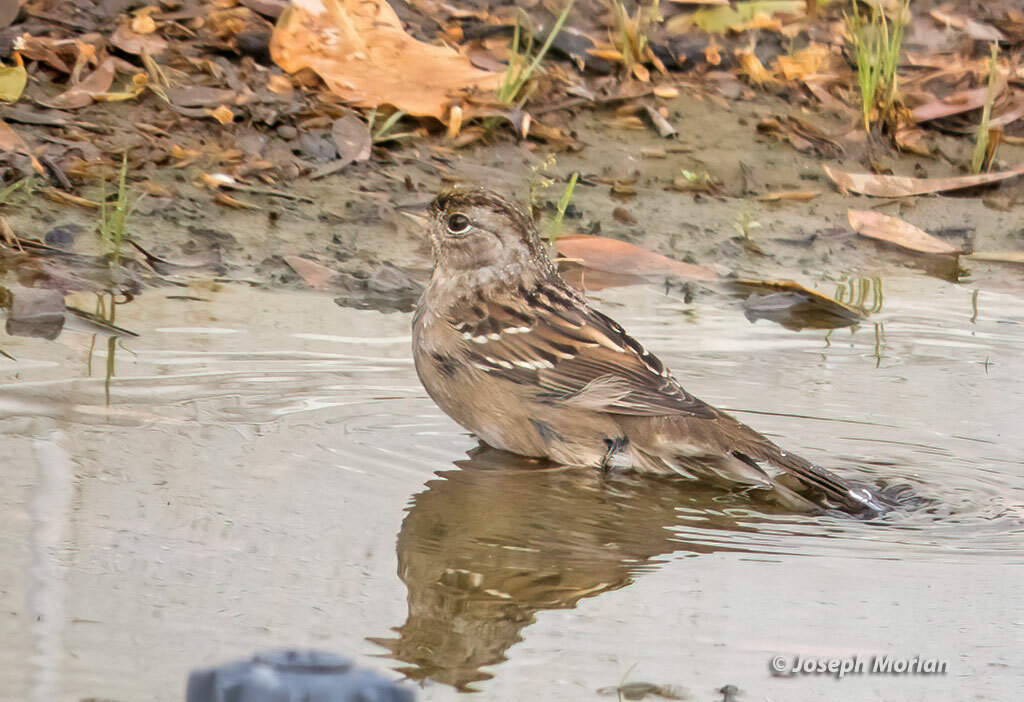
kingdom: Animalia
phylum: Chordata
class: Aves
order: Passeriformes
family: Passerellidae
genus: Zonotrichia
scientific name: Zonotrichia atricapilla
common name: Golden-crowned sparrow
